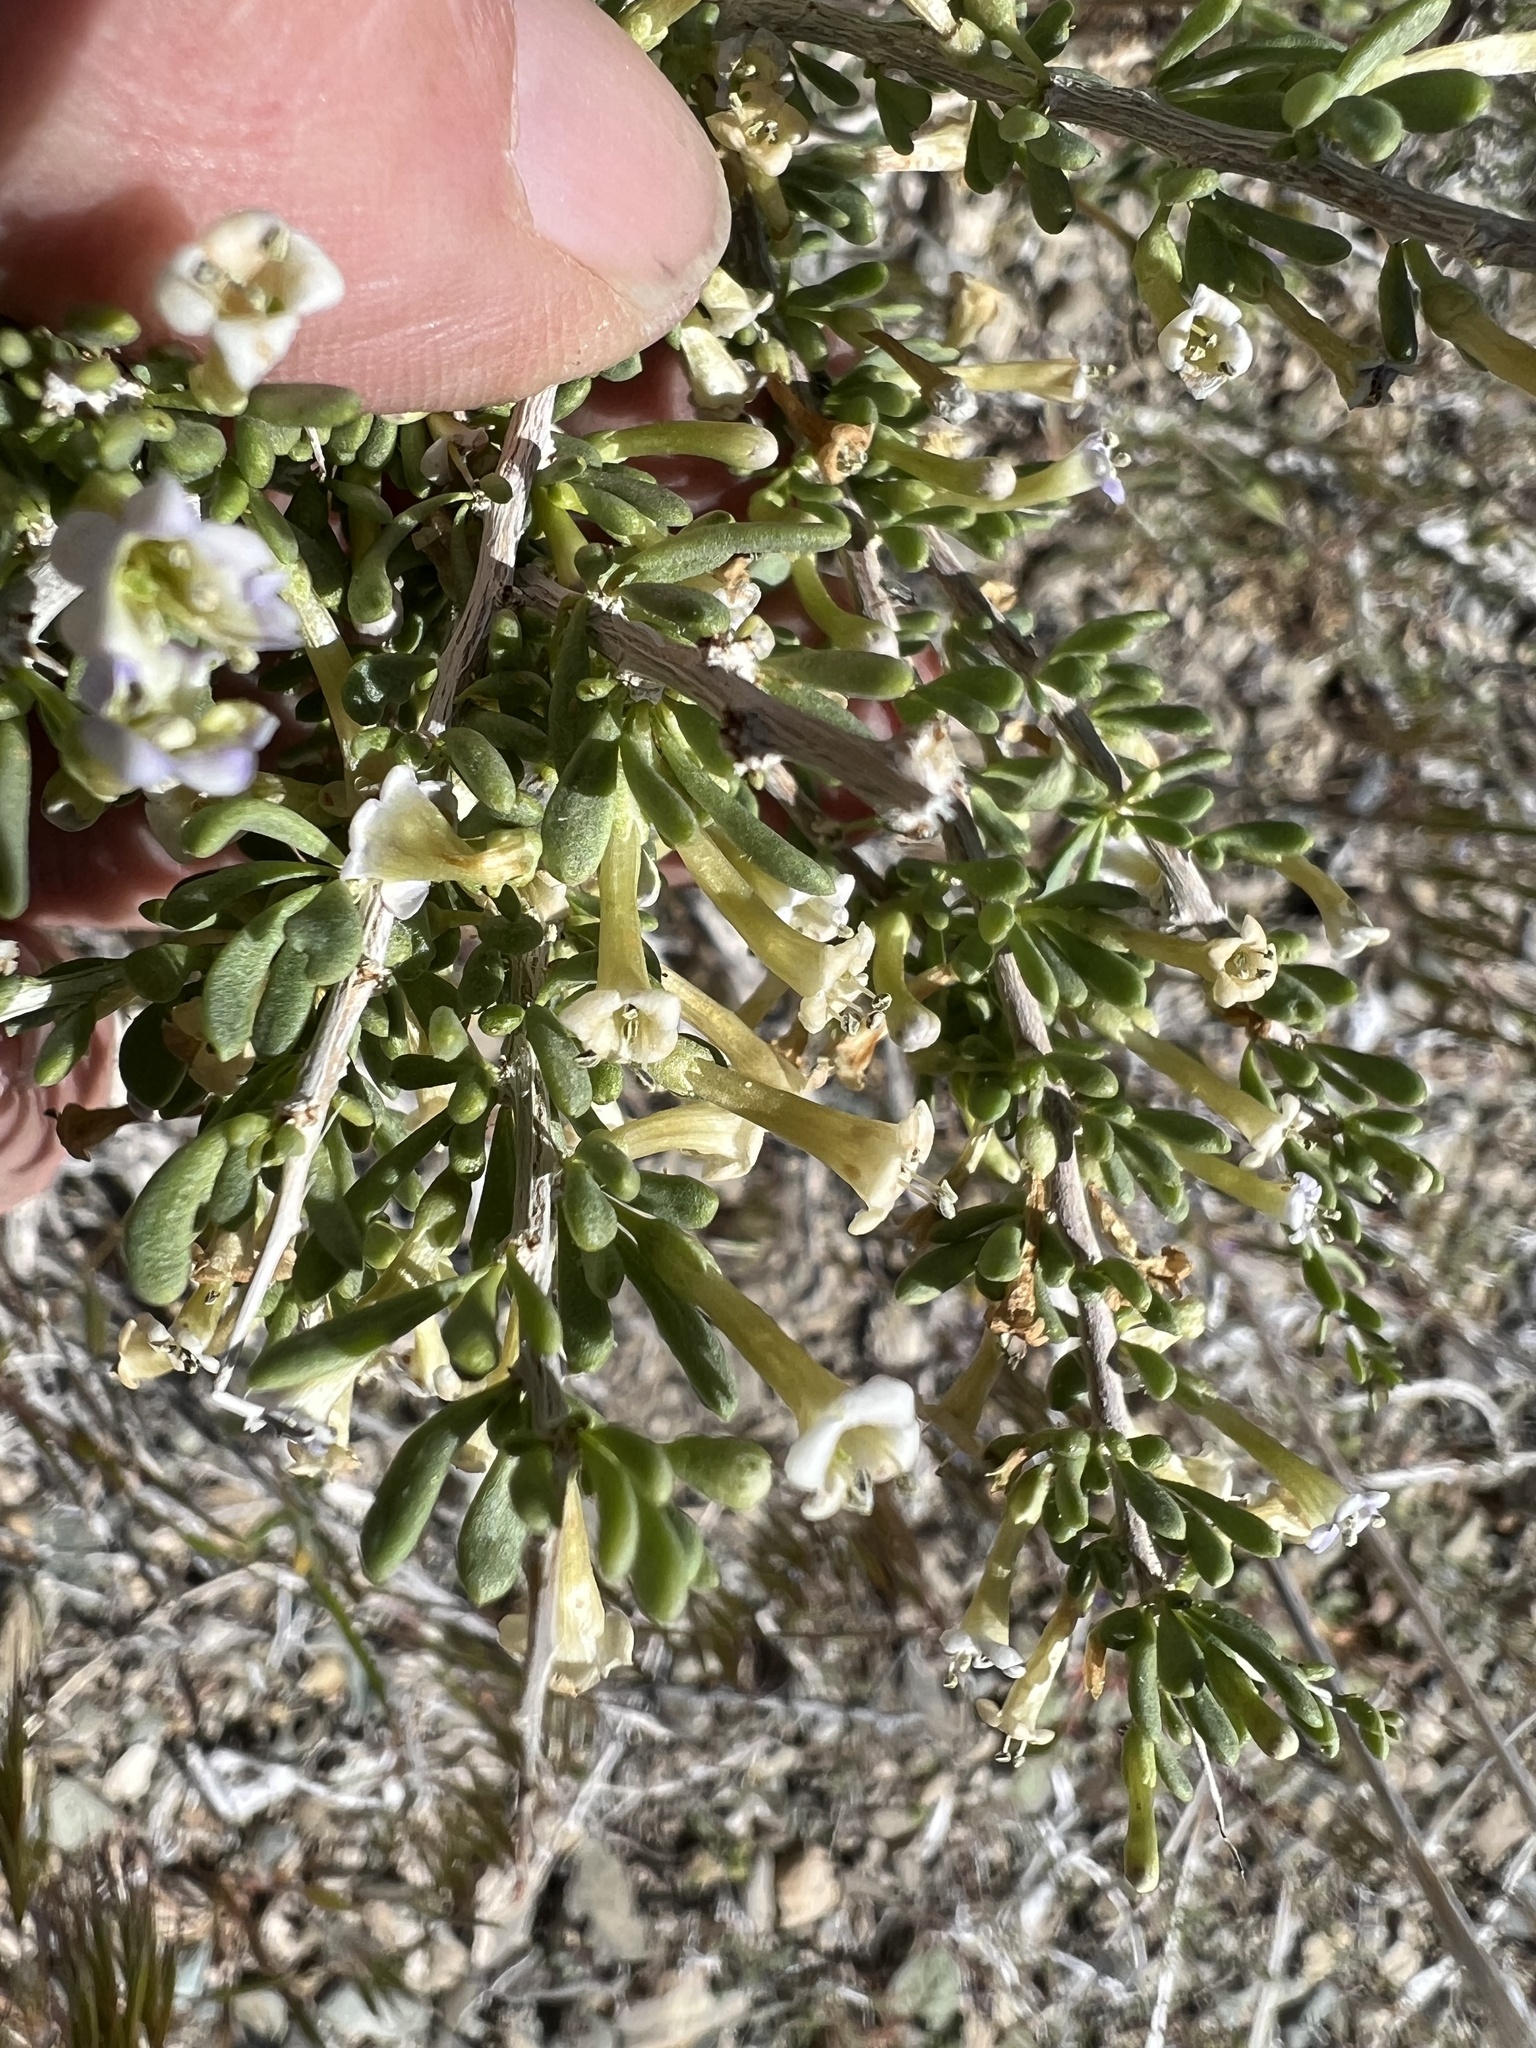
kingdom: Plantae
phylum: Tracheophyta
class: Magnoliopsida
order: Solanales
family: Solanaceae
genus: Lycium
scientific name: Lycium andersonii
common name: Water-jacket
